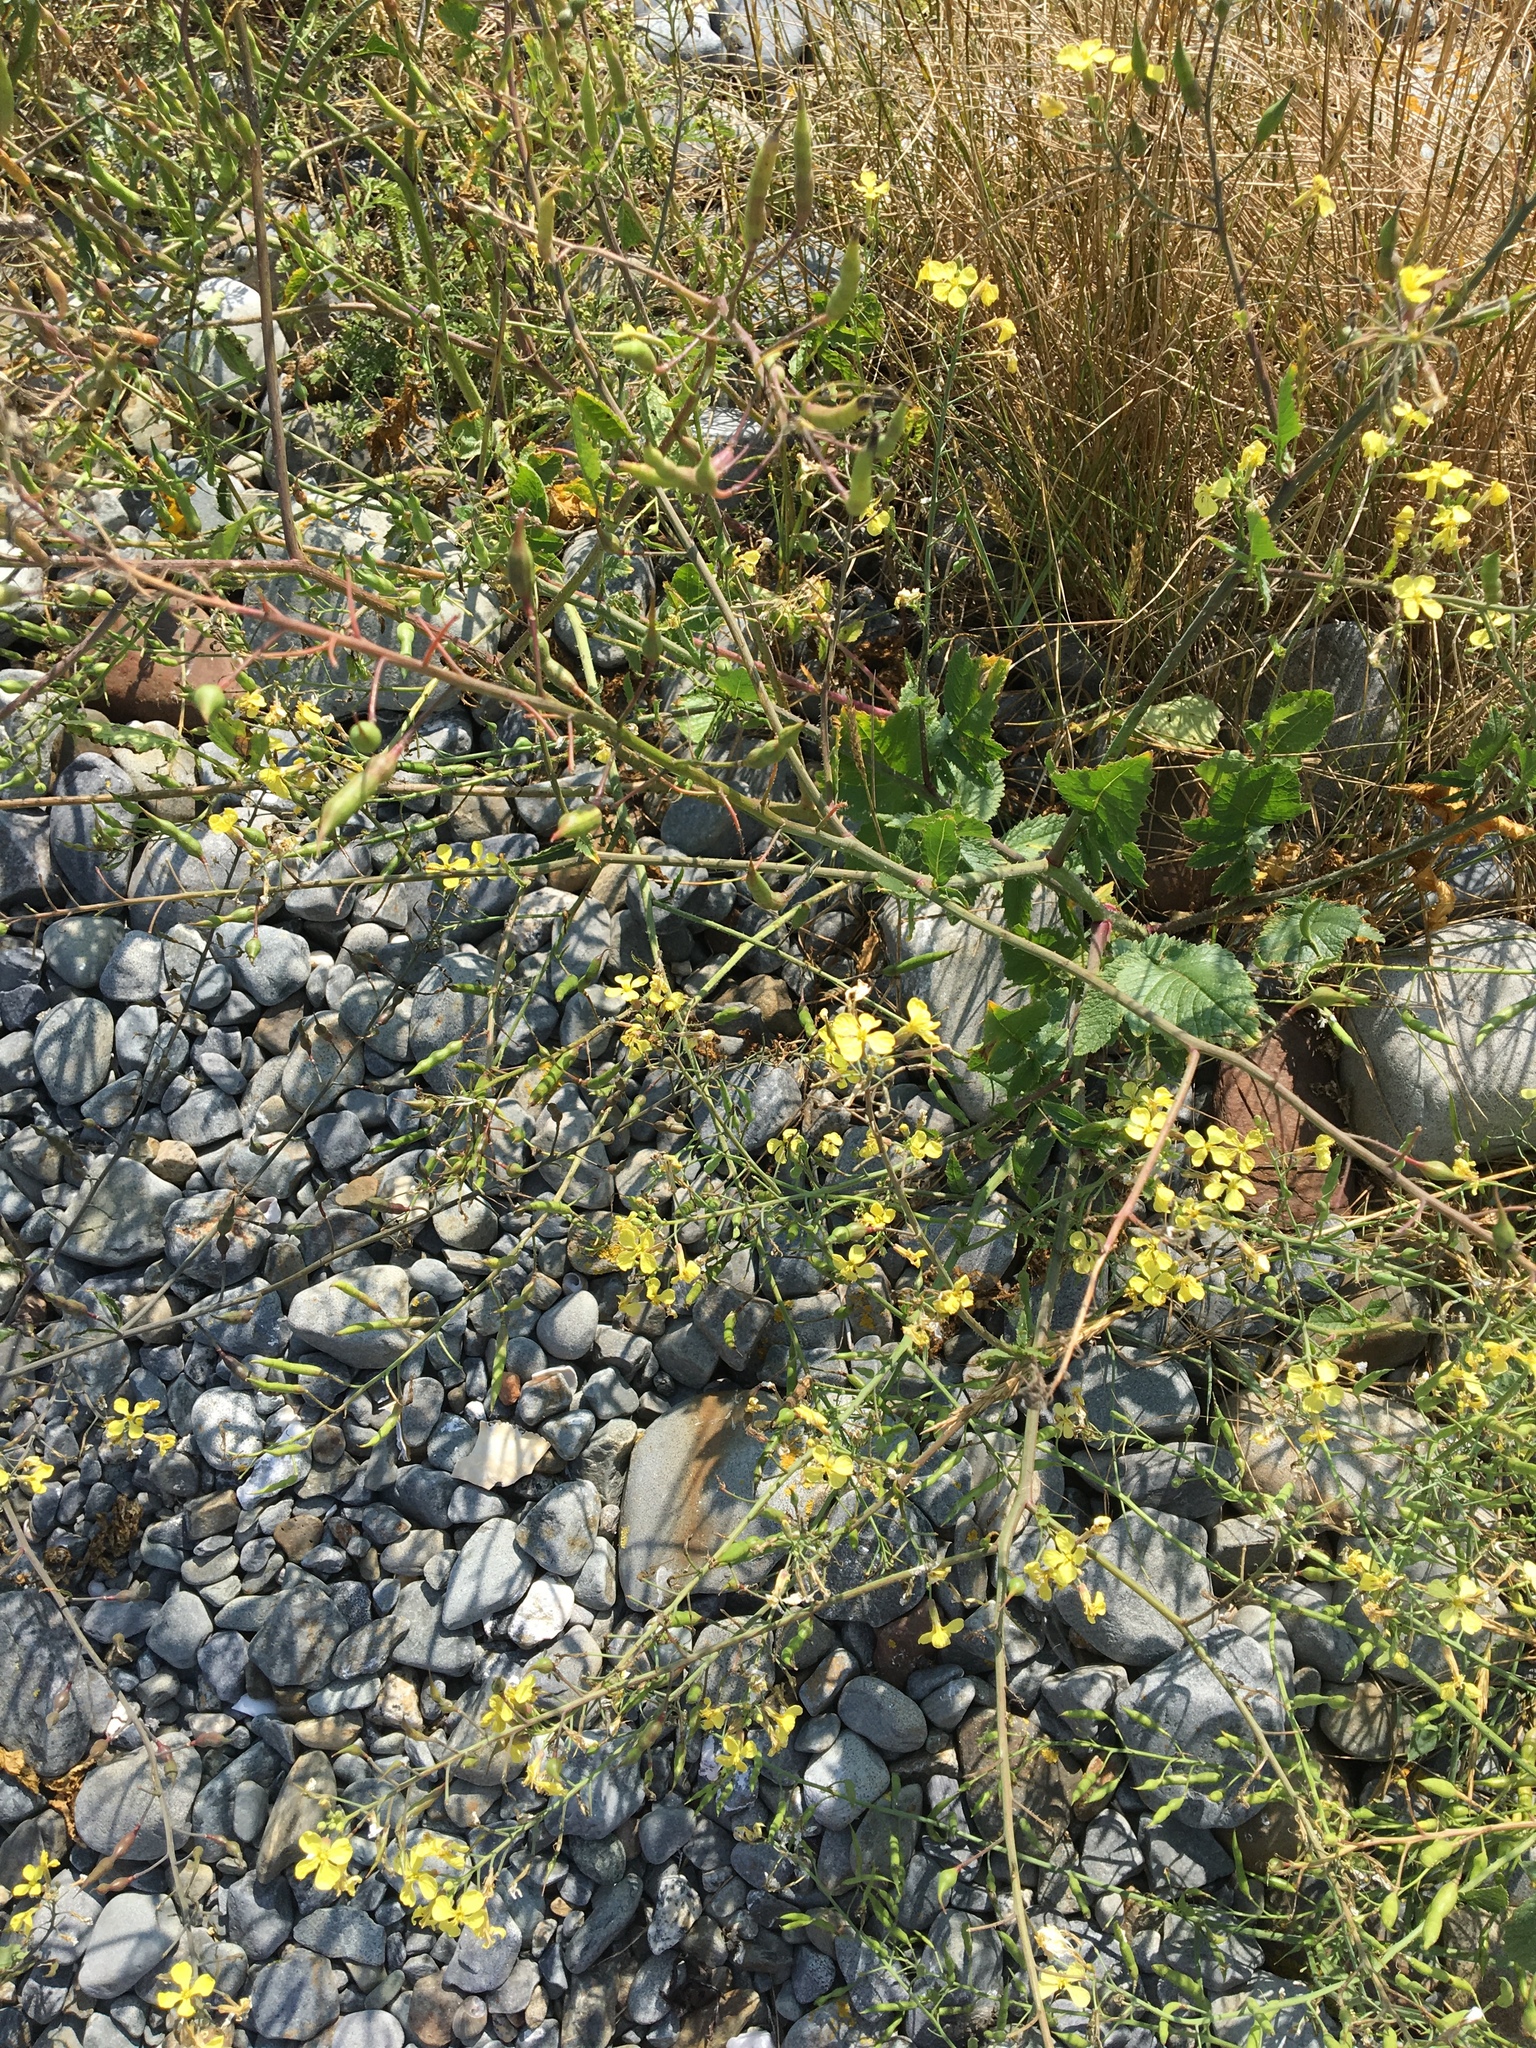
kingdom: Plantae
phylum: Tracheophyta
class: Magnoliopsida
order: Brassicales
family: Brassicaceae
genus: Raphanus
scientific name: Raphanus raphanistrum
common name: Wild radish
